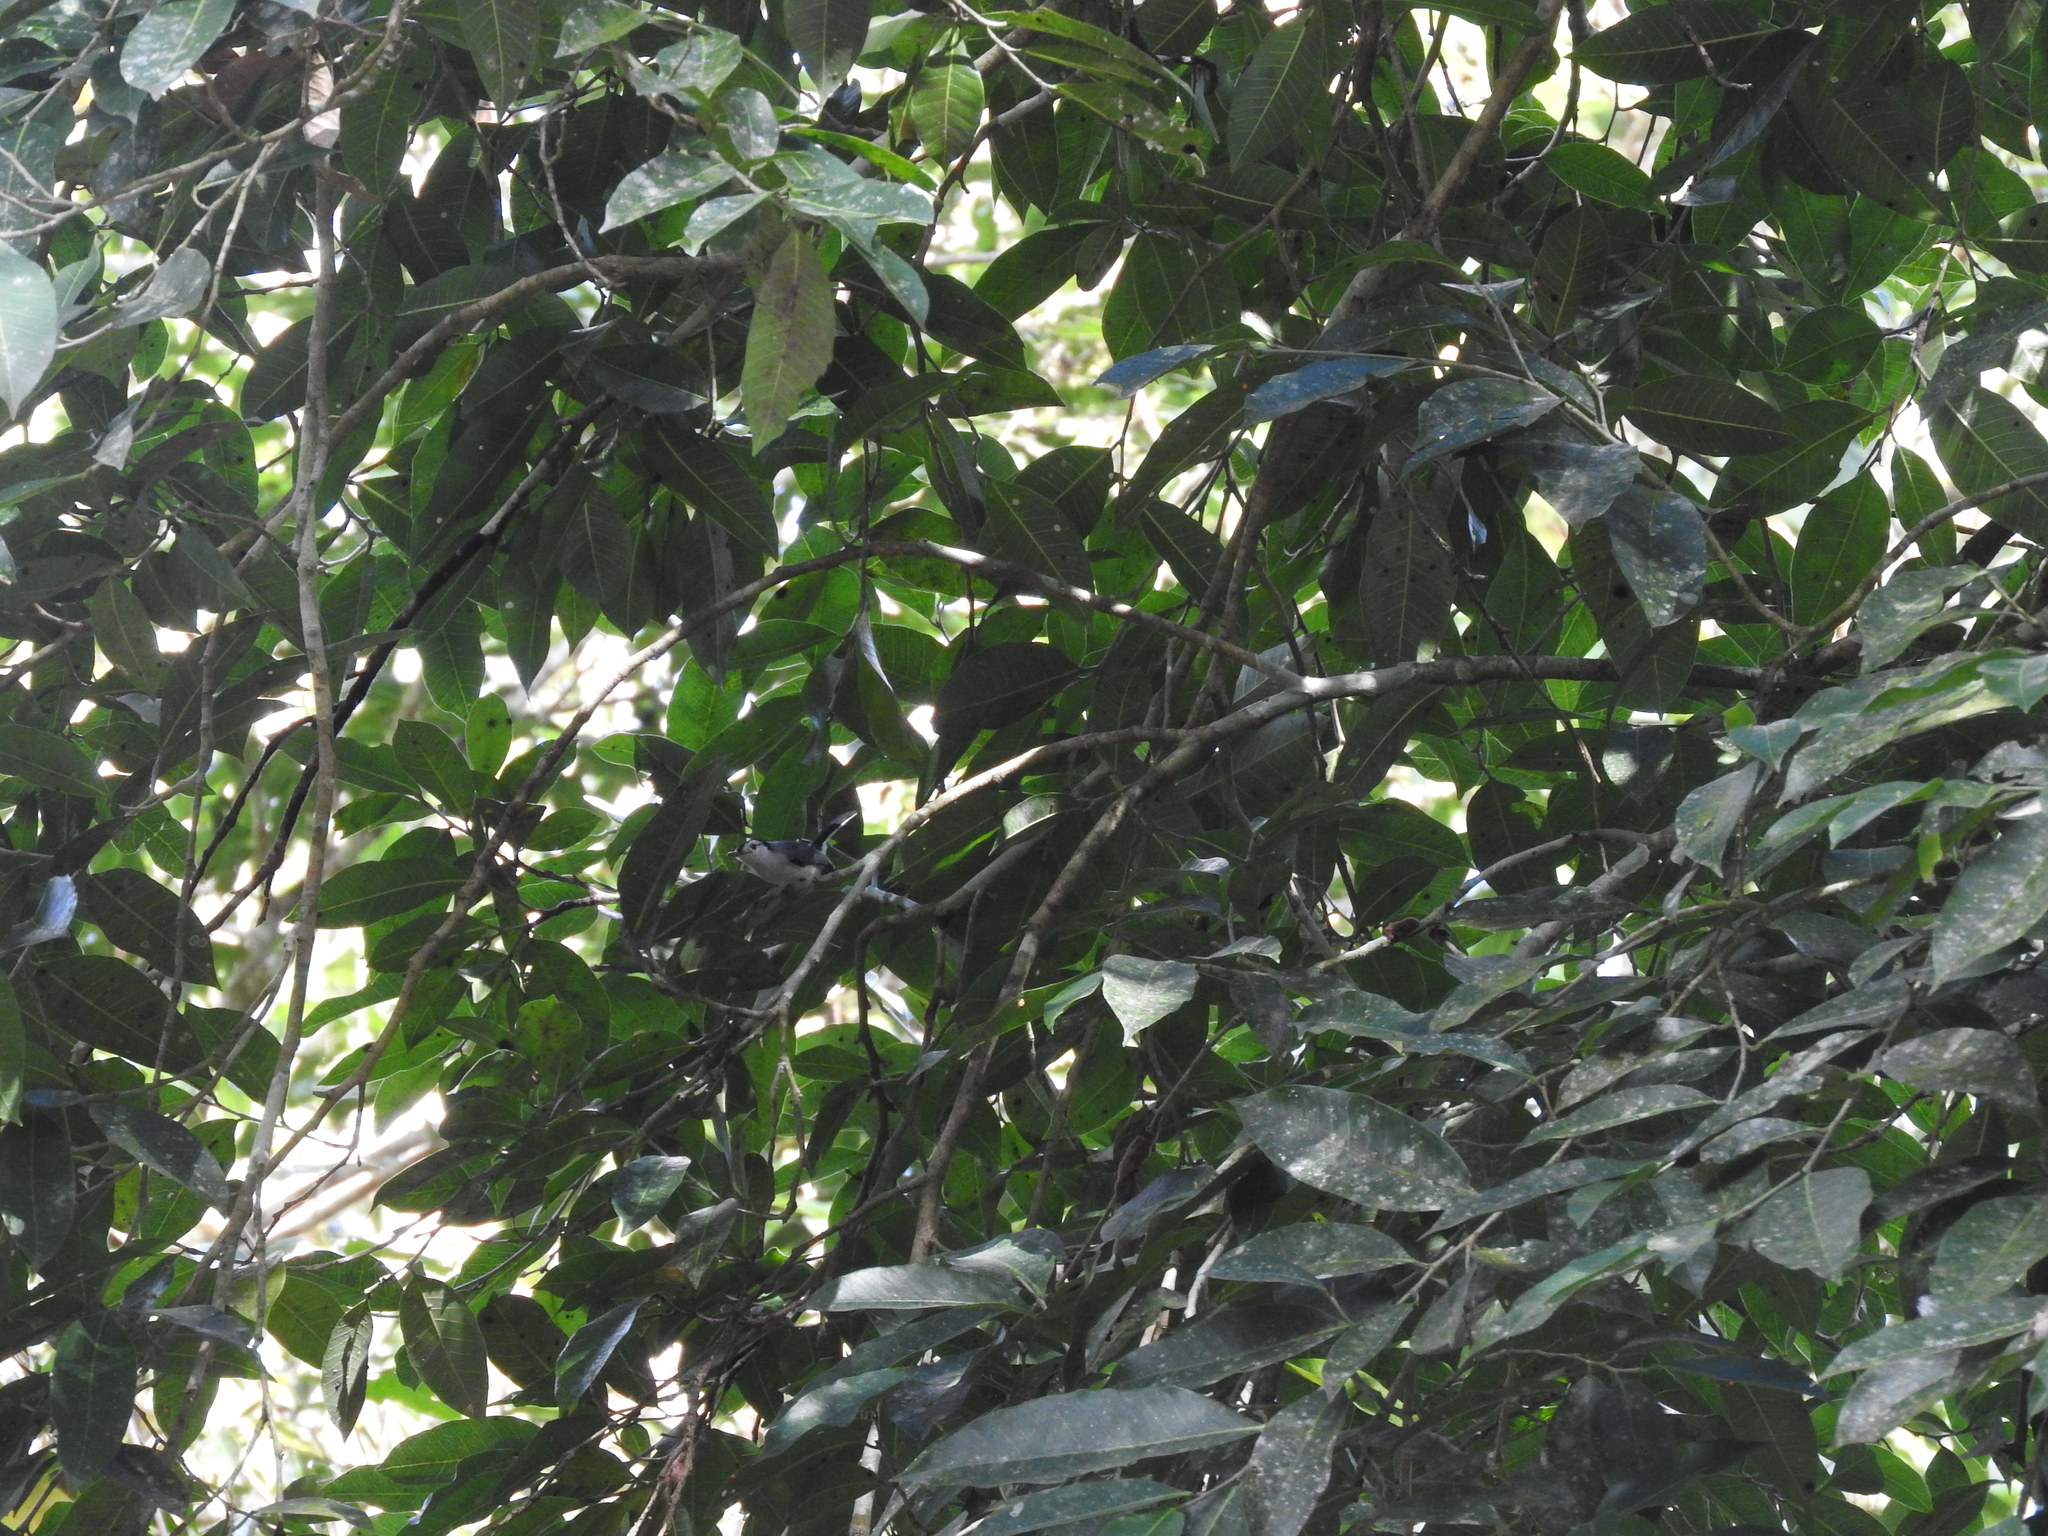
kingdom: Animalia
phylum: Chordata
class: Aves
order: Passeriformes
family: Polioptilidae
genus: Polioptila
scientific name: Polioptila plumbea
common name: Tropical gnatcatcher
